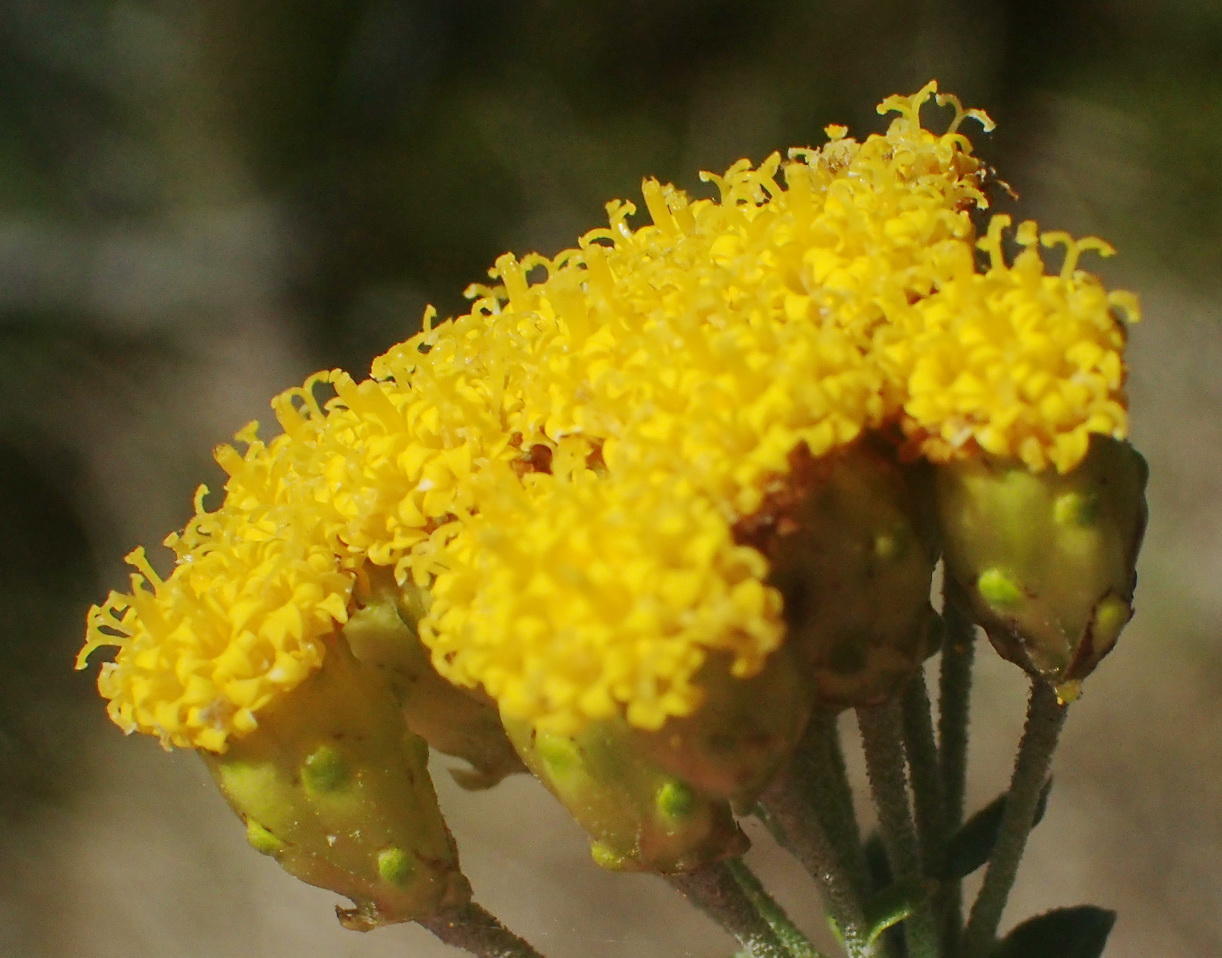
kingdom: Plantae
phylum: Tracheophyta
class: Magnoliopsida
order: Asterales
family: Asteraceae
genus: Athanasia
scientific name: Athanasia quinquedentata
